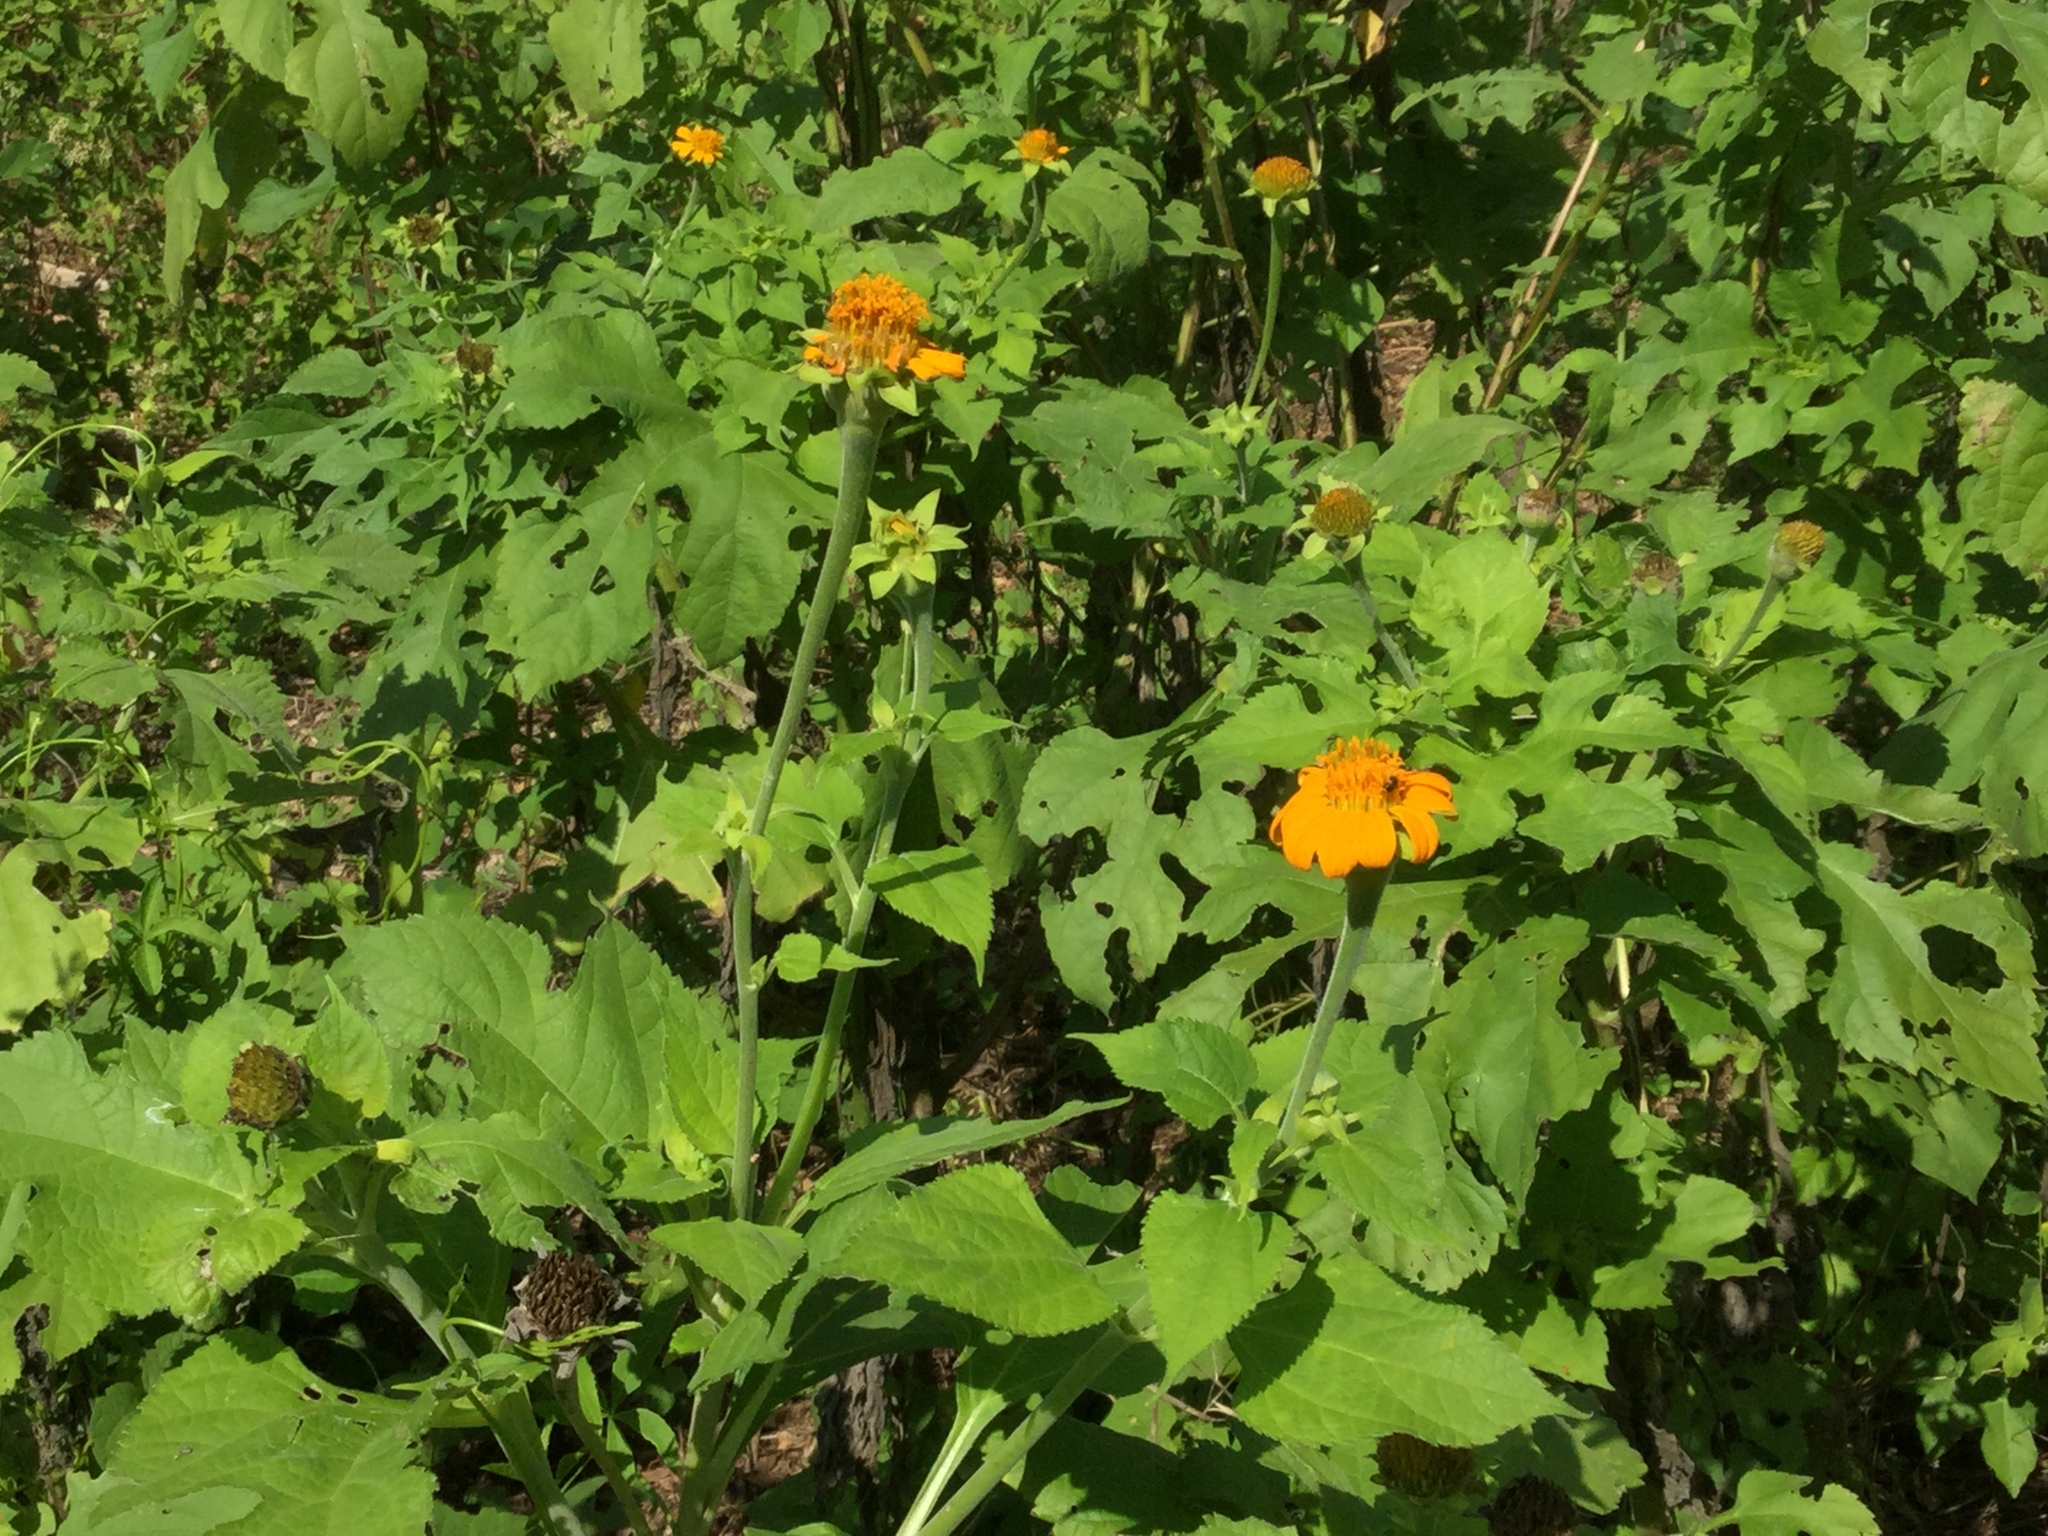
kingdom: Plantae
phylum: Tracheophyta
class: Magnoliopsida
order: Asterales
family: Asteraceae
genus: Tithonia
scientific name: Tithonia rotundifolia
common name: Sunflower
